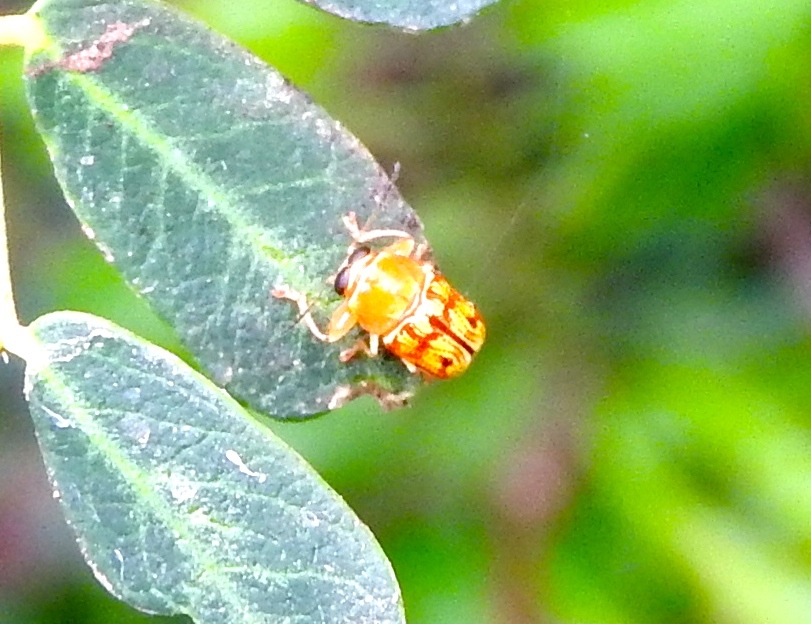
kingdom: Animalia
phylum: Arthropoda
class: Insecta
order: Coleoptera
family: Chrysomelidae
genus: Griburius
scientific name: Griburius puncturatus
